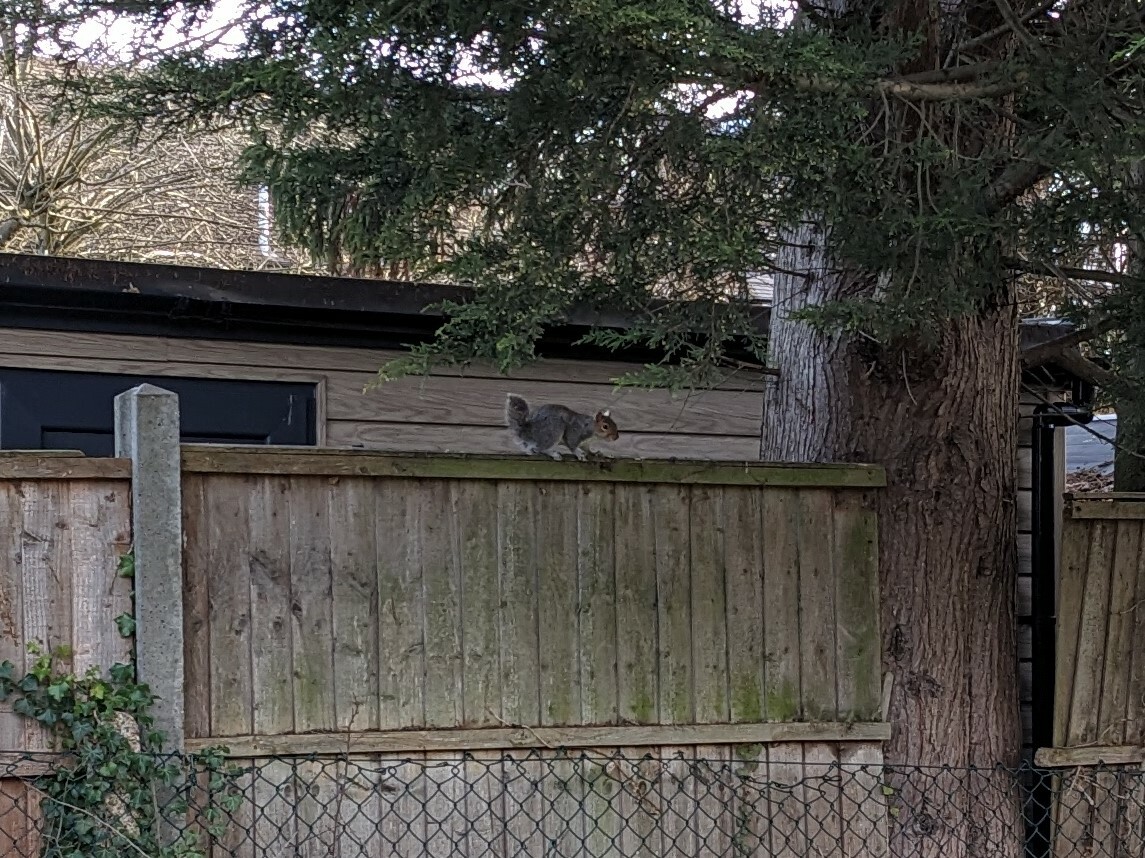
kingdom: Animalia
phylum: Chordata
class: Mammalia
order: Rodentia
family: Sciuridae
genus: Sciurus
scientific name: Sciurus carolinensis
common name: Eastern gray squirrel
